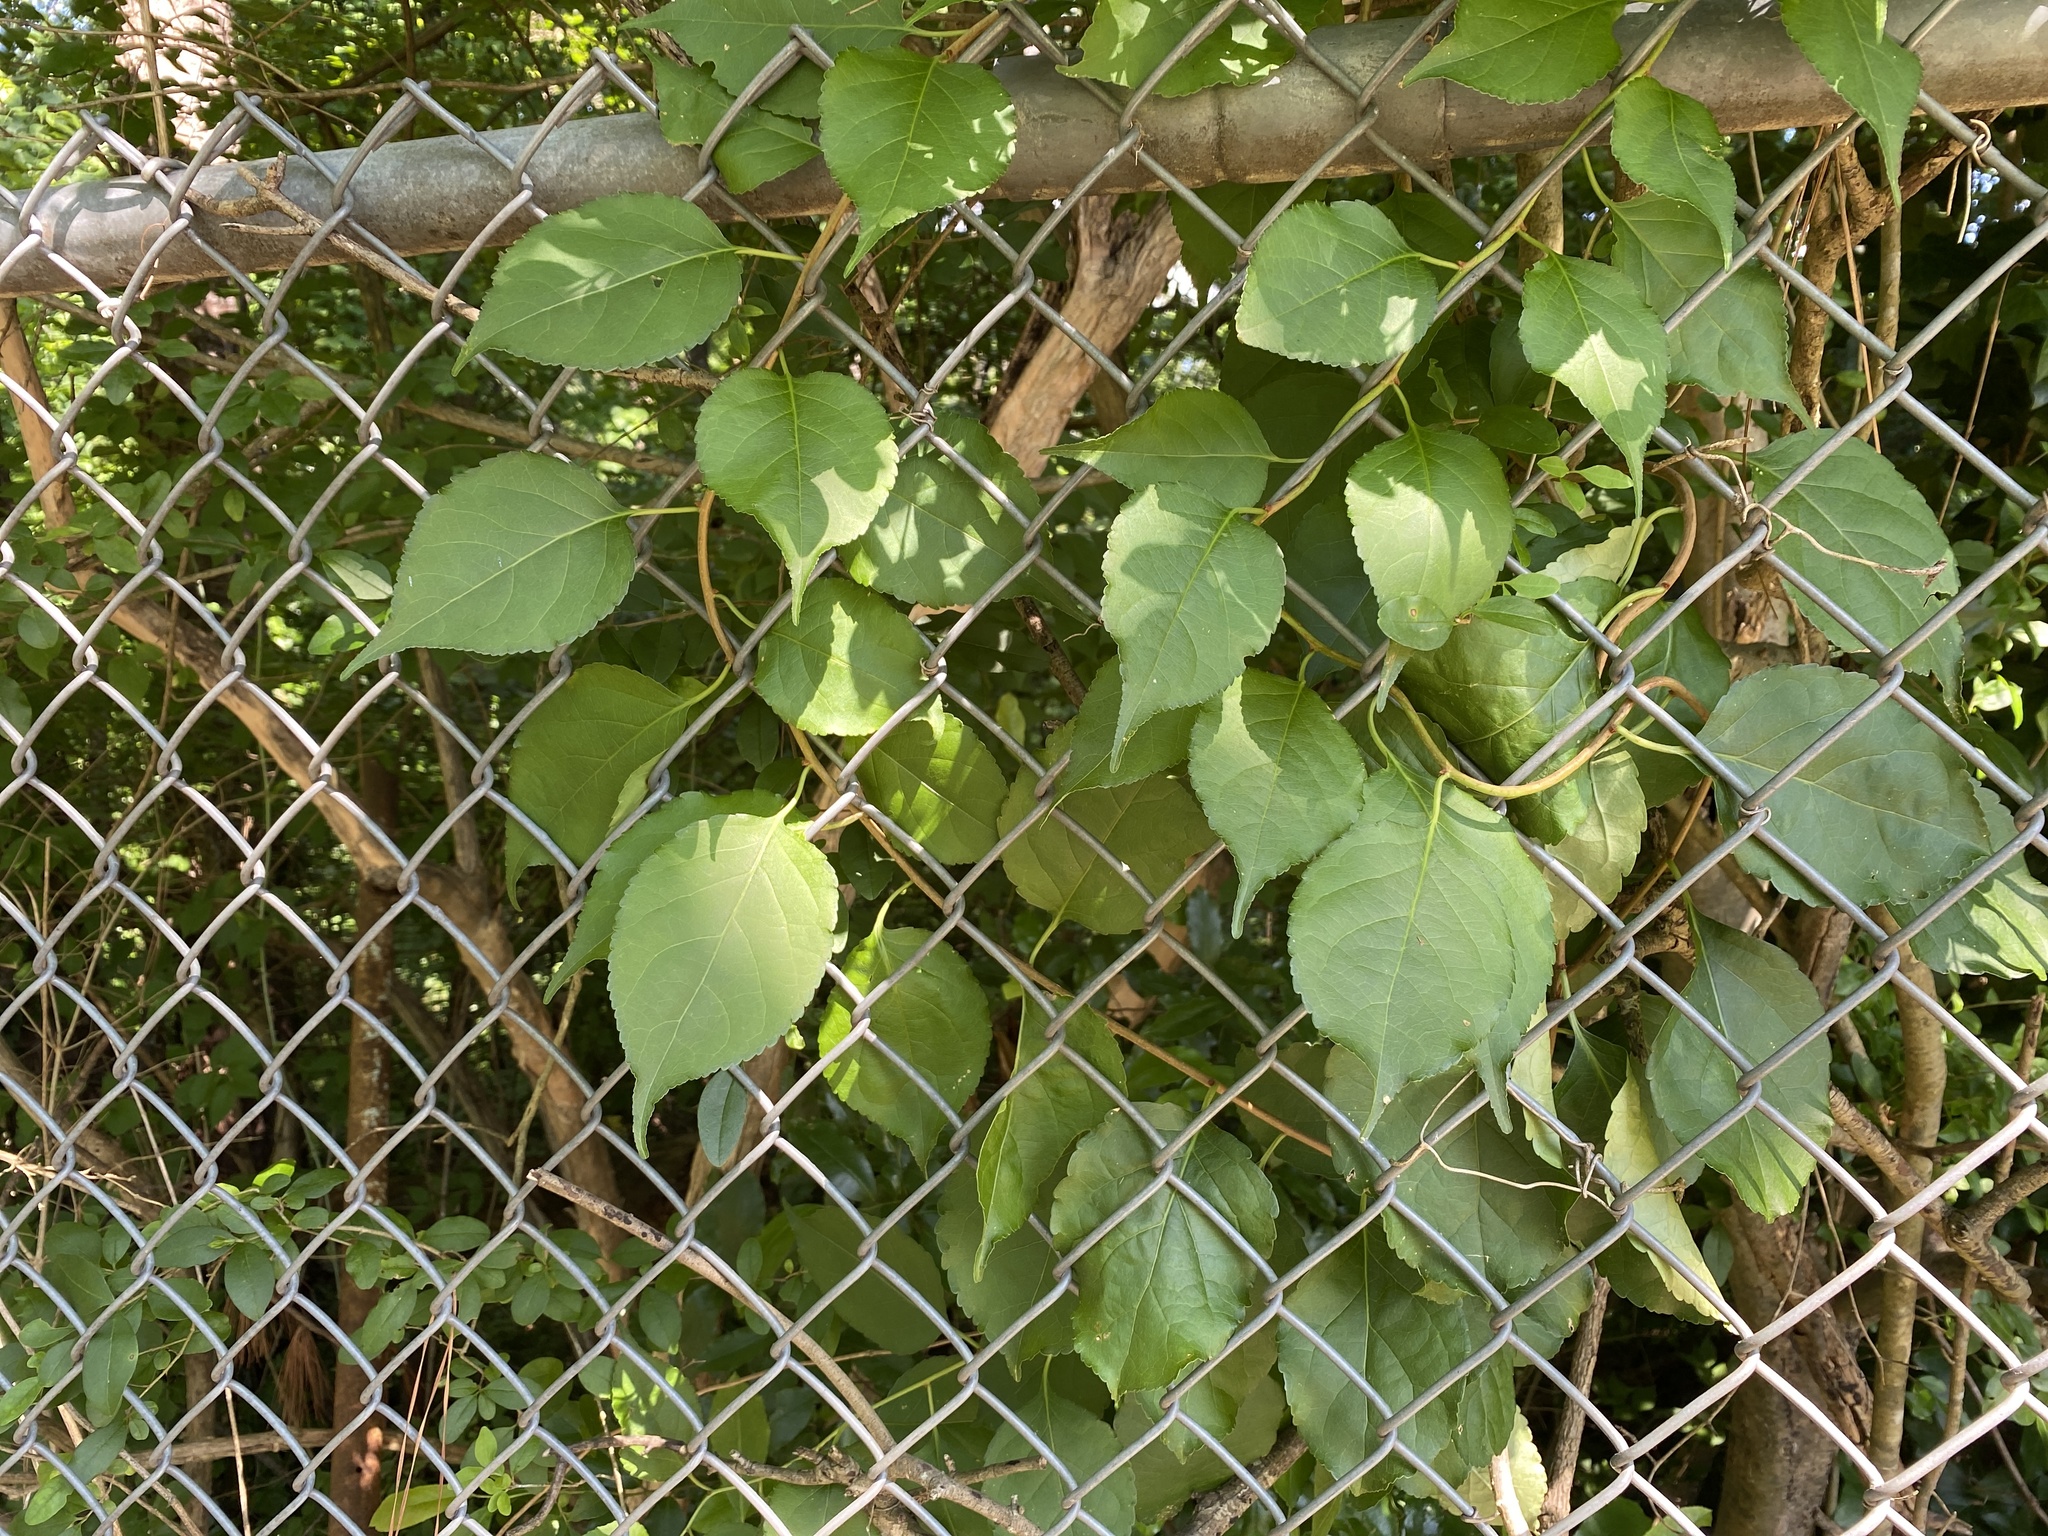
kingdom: Plantae
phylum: Tracheophyta
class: Magnoliopsida
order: Celastrales
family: Celastraceae
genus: Celastrus
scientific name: Celastrus orbiculatus
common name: Oriental bittersweet
